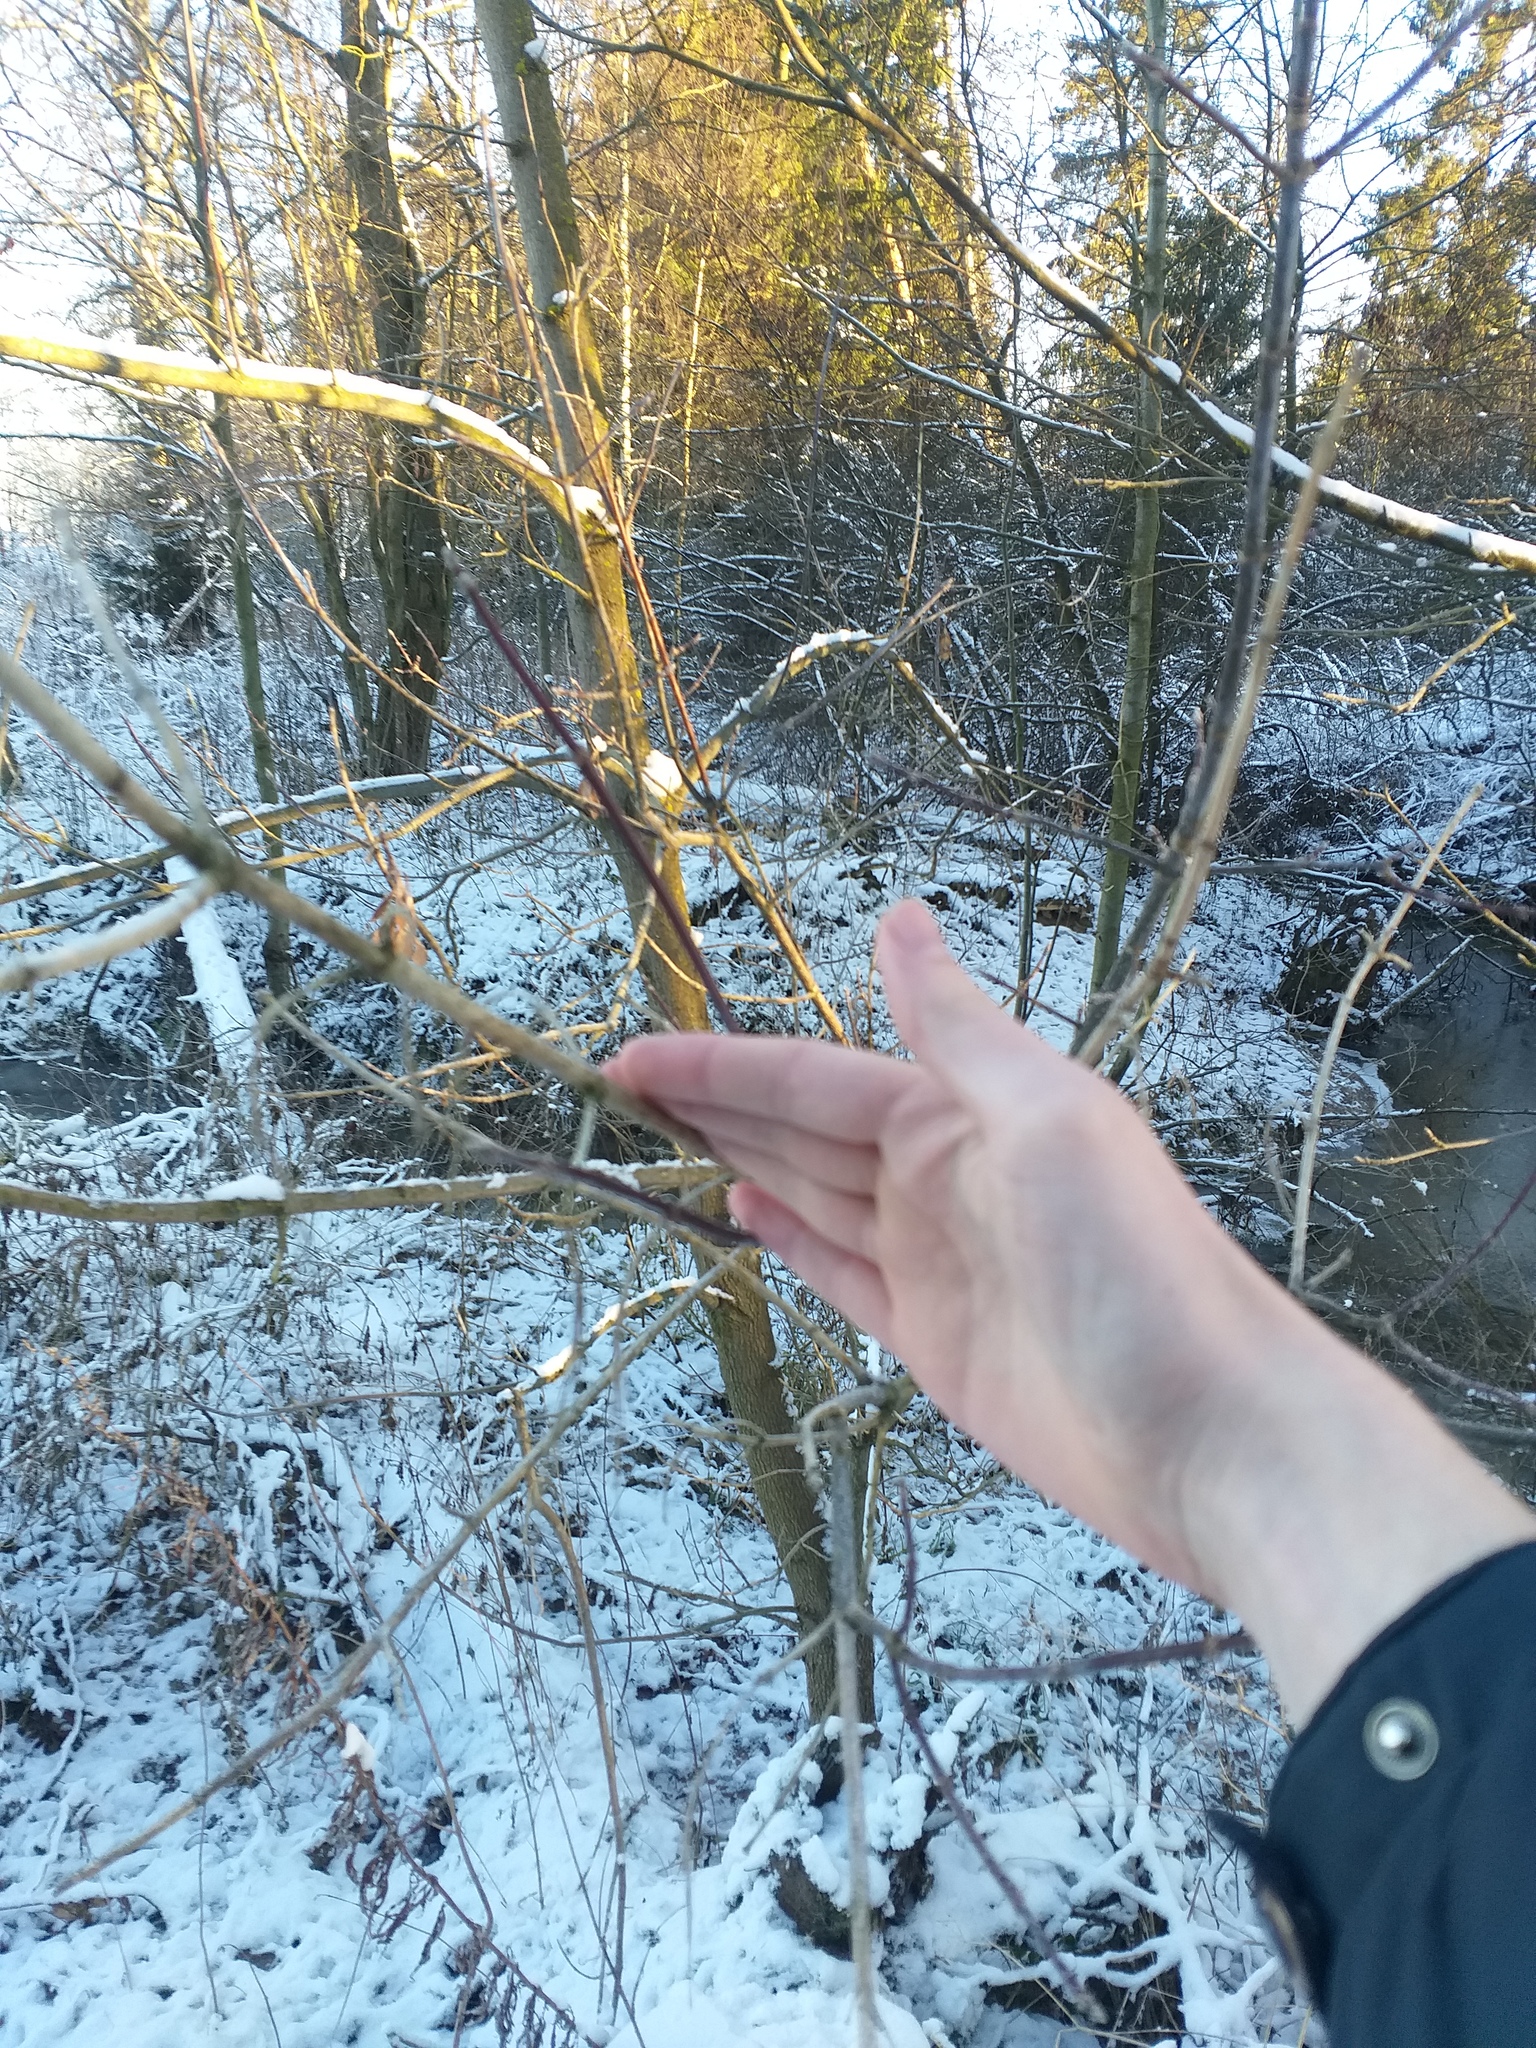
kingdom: Plantae
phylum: Tracheophyta
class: Magnoliopsida
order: Sapindales
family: Sapindaceae
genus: Acer
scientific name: Acer negundo
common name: Ashleaf maple
